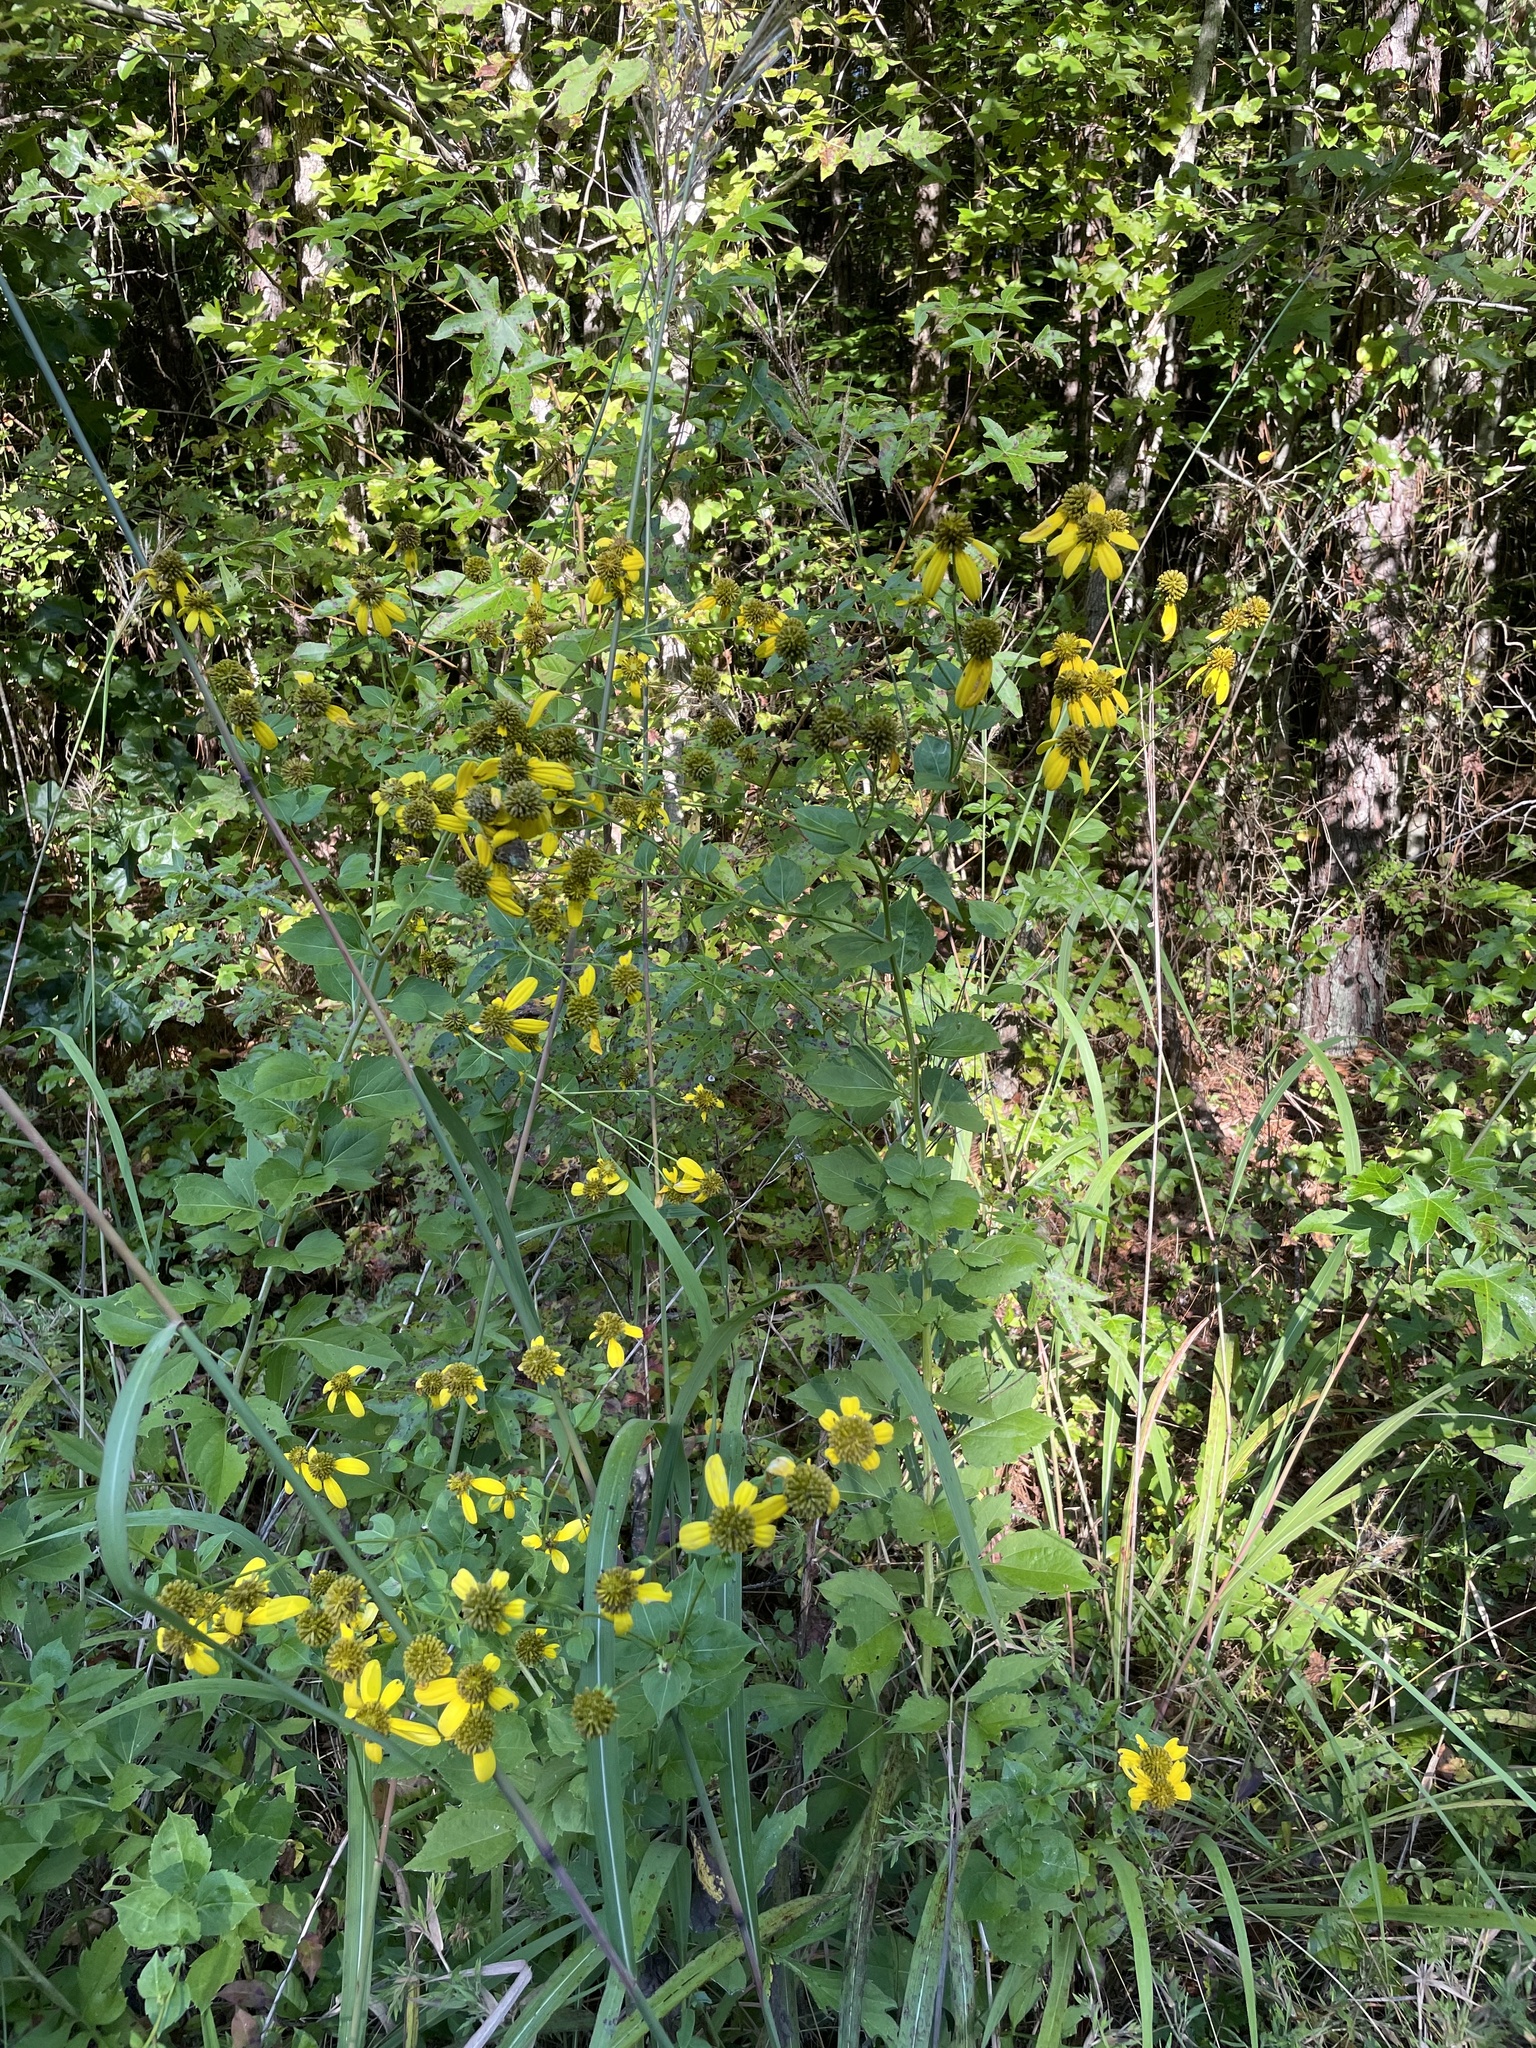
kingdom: Plantae
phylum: Tracheophyta
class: Magnoliopsida
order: Asterales
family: Asteraceae
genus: Rudbeckia
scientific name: Rudbeckia laciniata
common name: Coneflower
